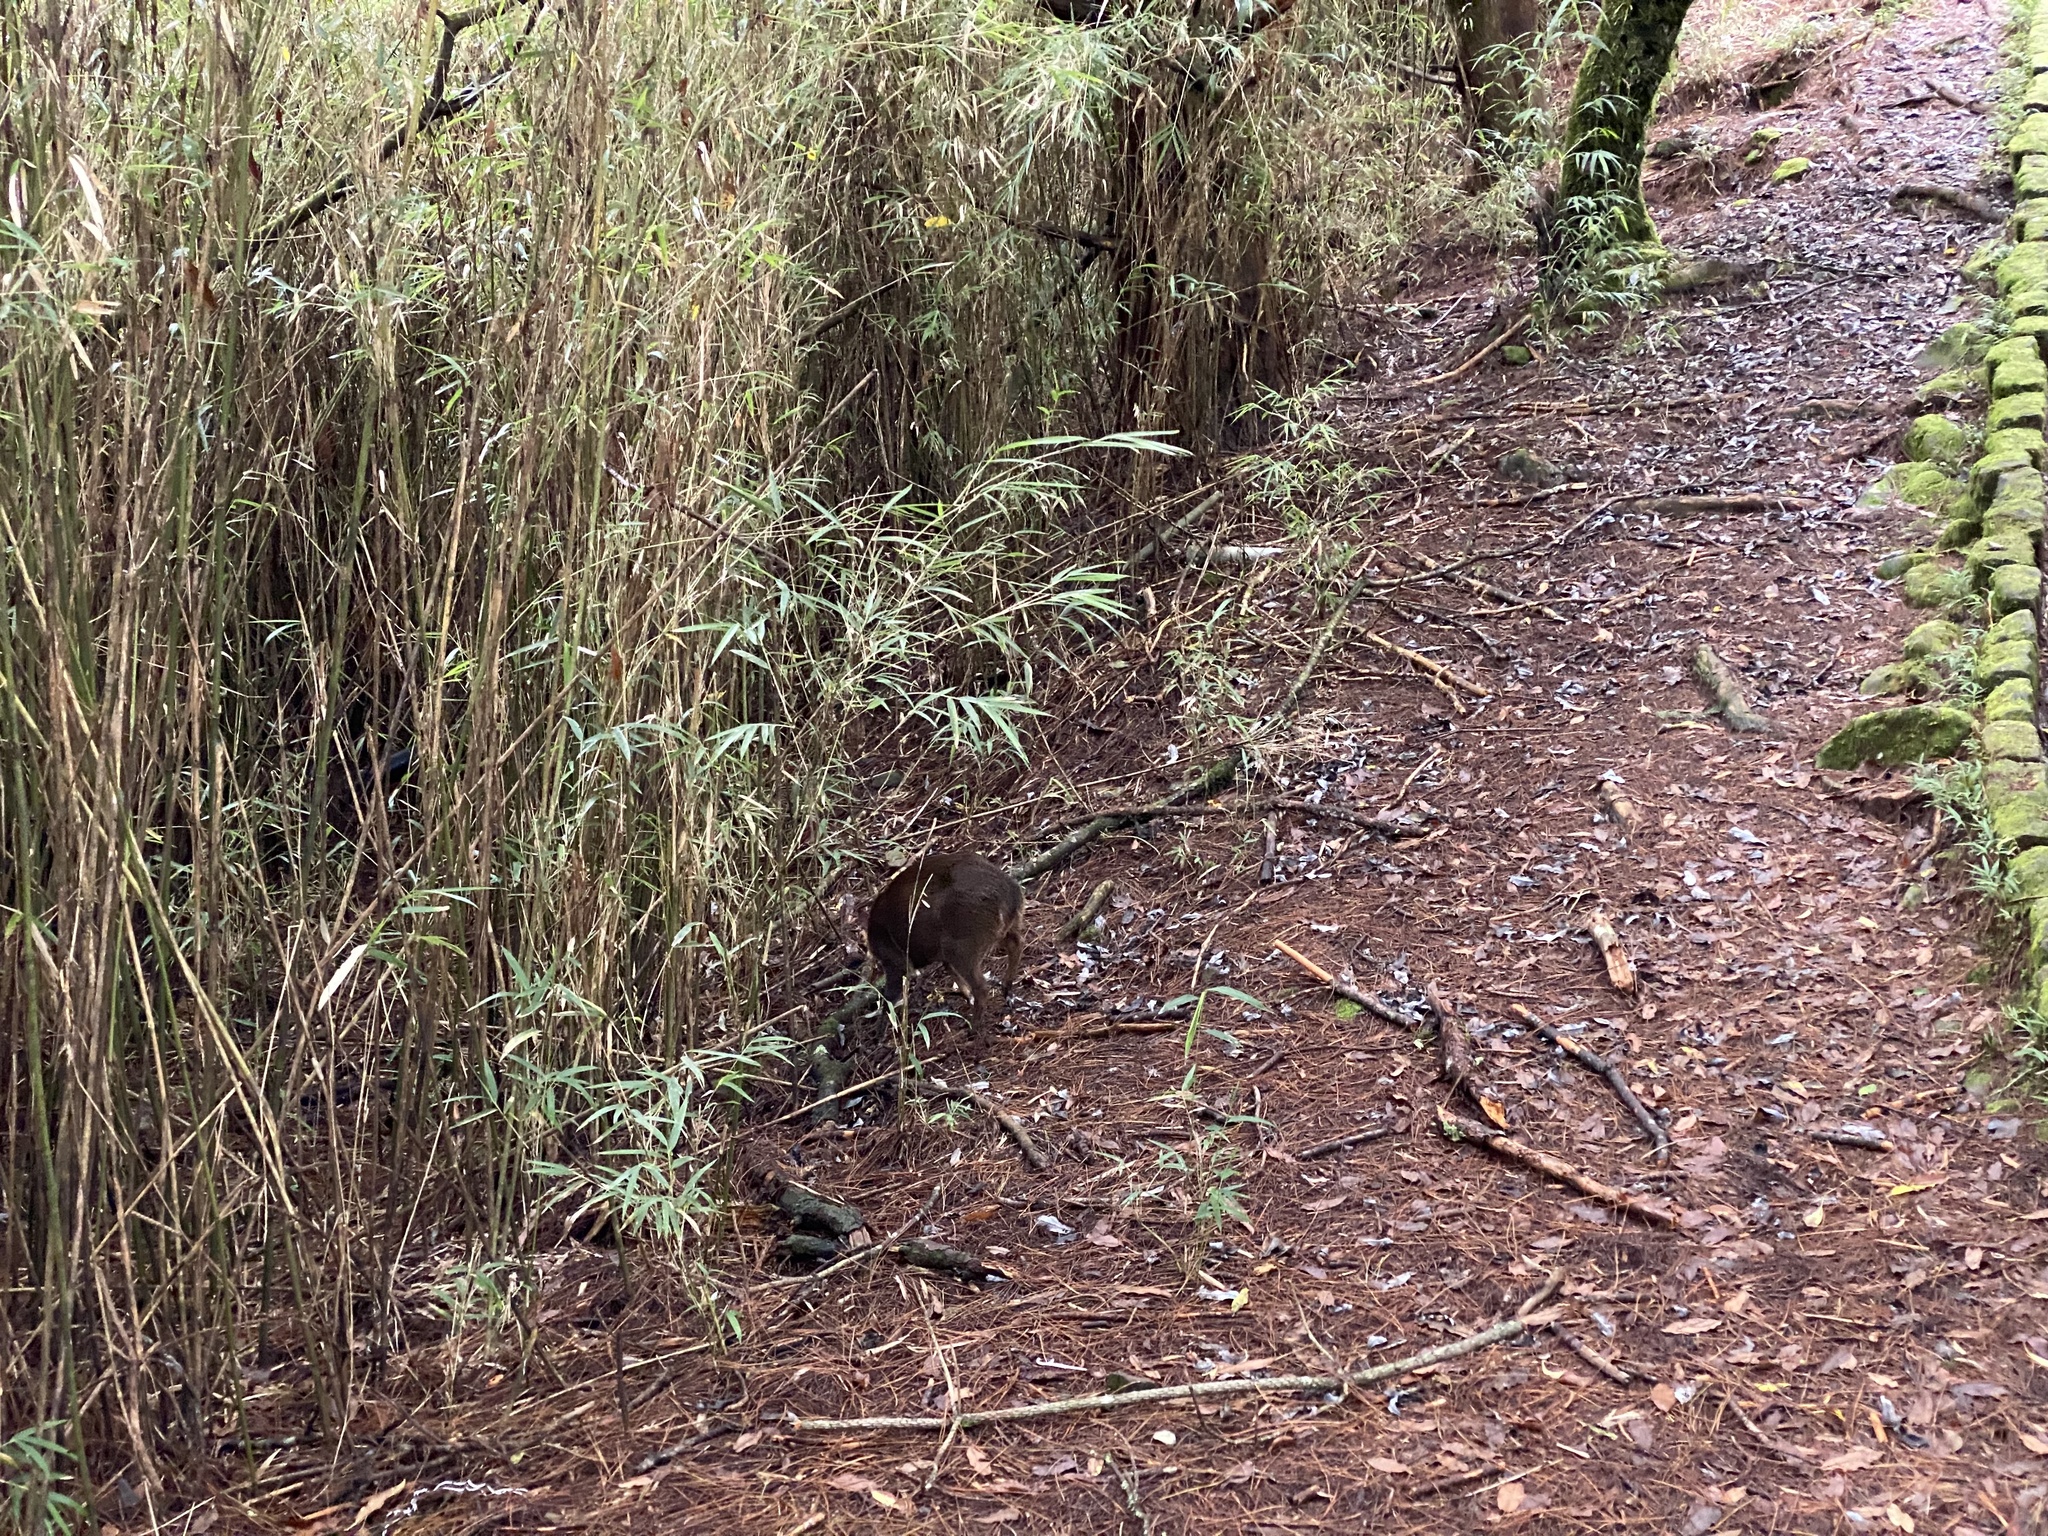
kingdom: Animalia
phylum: Chordata
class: Mammalia
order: Artiodactyla
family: Cervidae
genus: Muntiacus
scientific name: Muntiacus reevesi
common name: Reeves' muntjac
